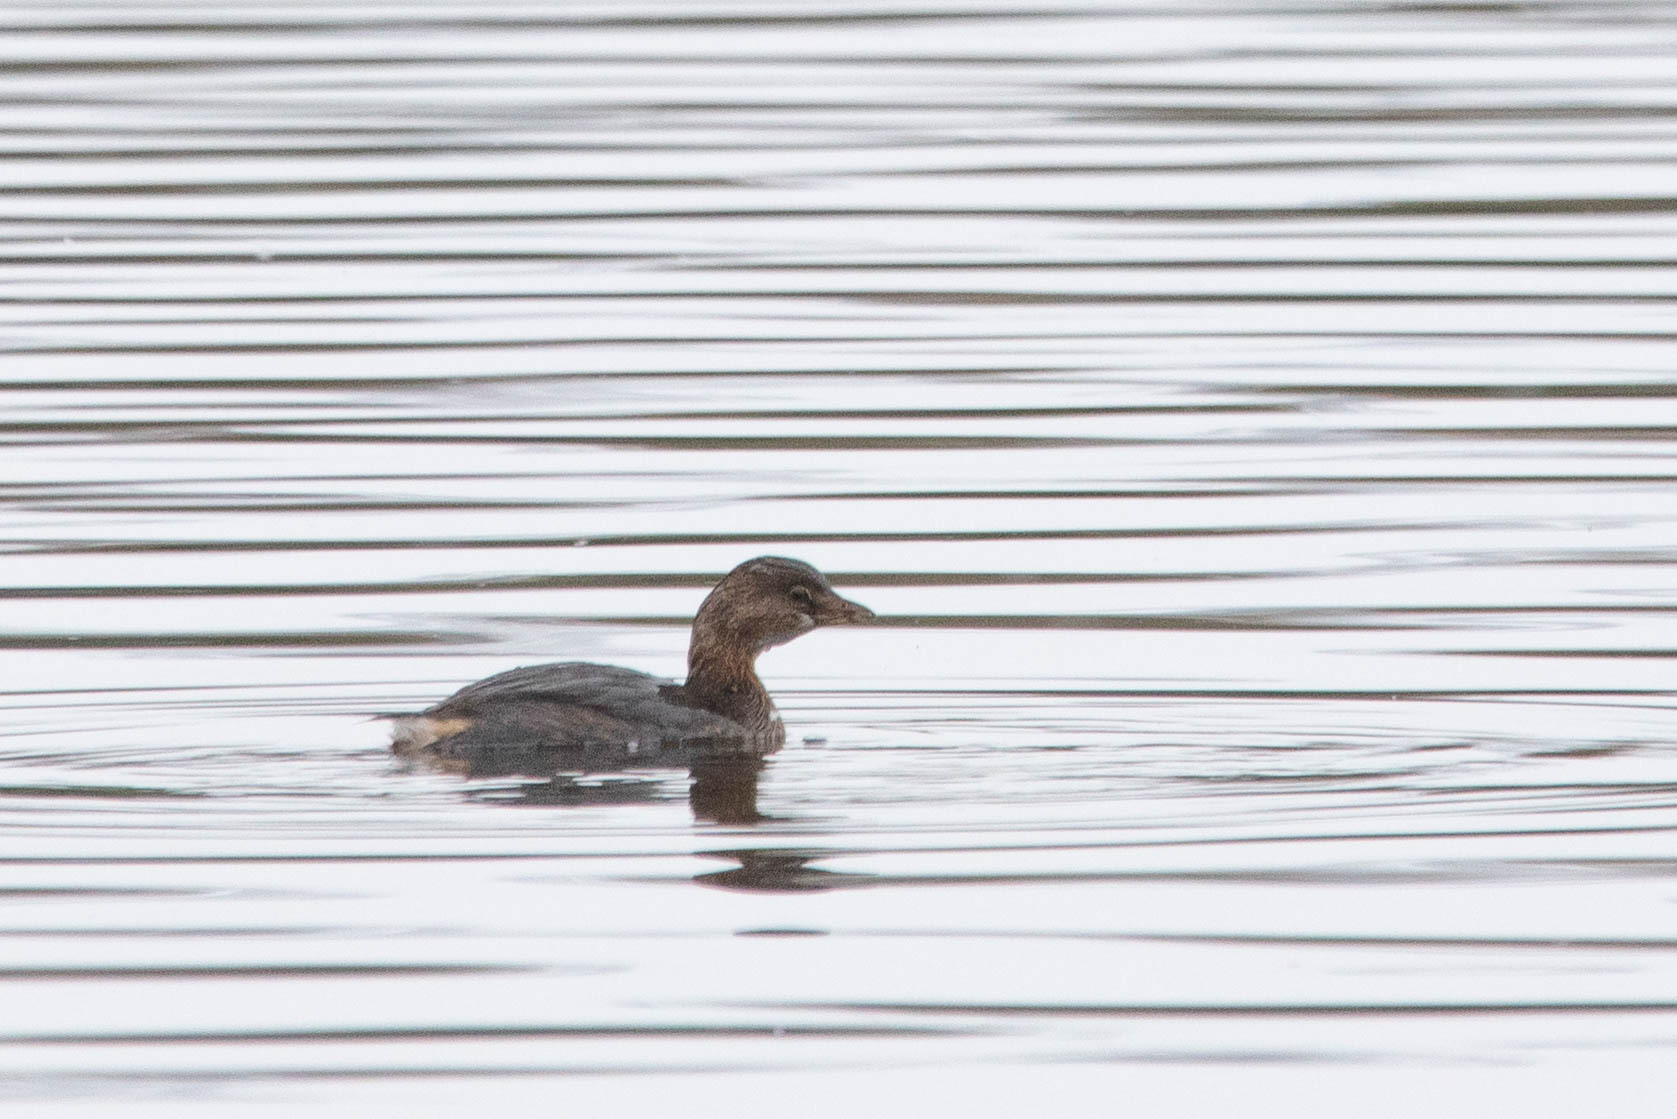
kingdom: Animalia
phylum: Chordata
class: Aves
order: Podicipediformes
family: Podicipedidae
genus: Podilymbus
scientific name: Podilymbus podiceps
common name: Pied-billed grebe
